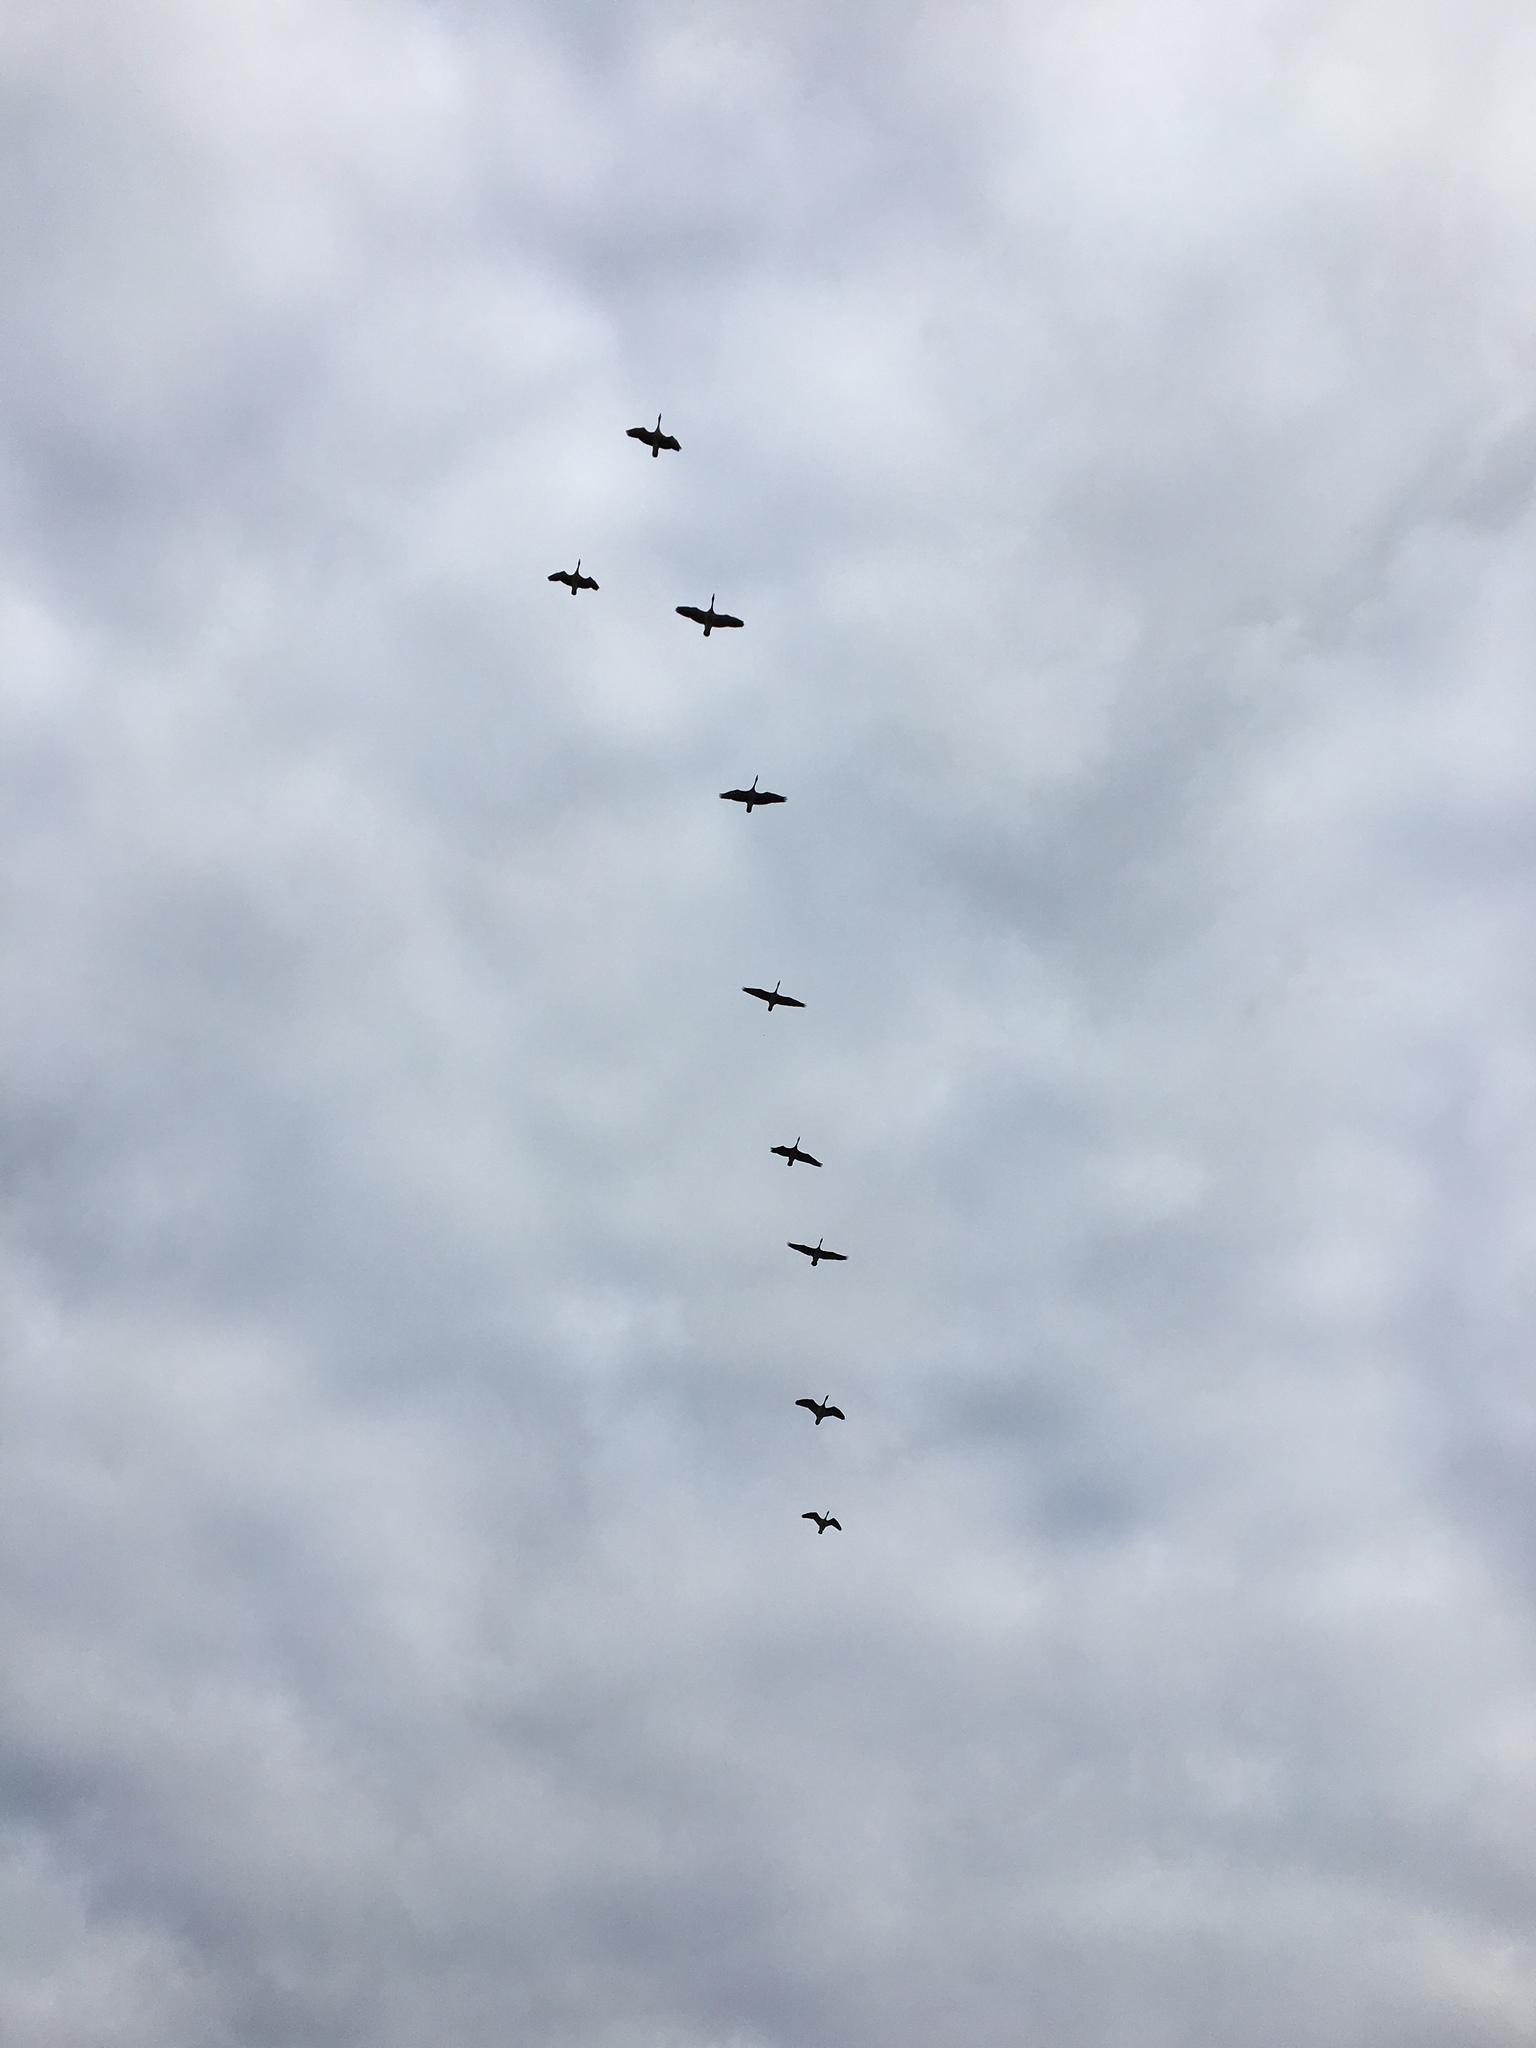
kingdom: Animalia
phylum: Chordata
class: Aves
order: Anseriformes
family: Anatidae
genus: Branta
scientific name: Branta canadensis
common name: Canada goose
